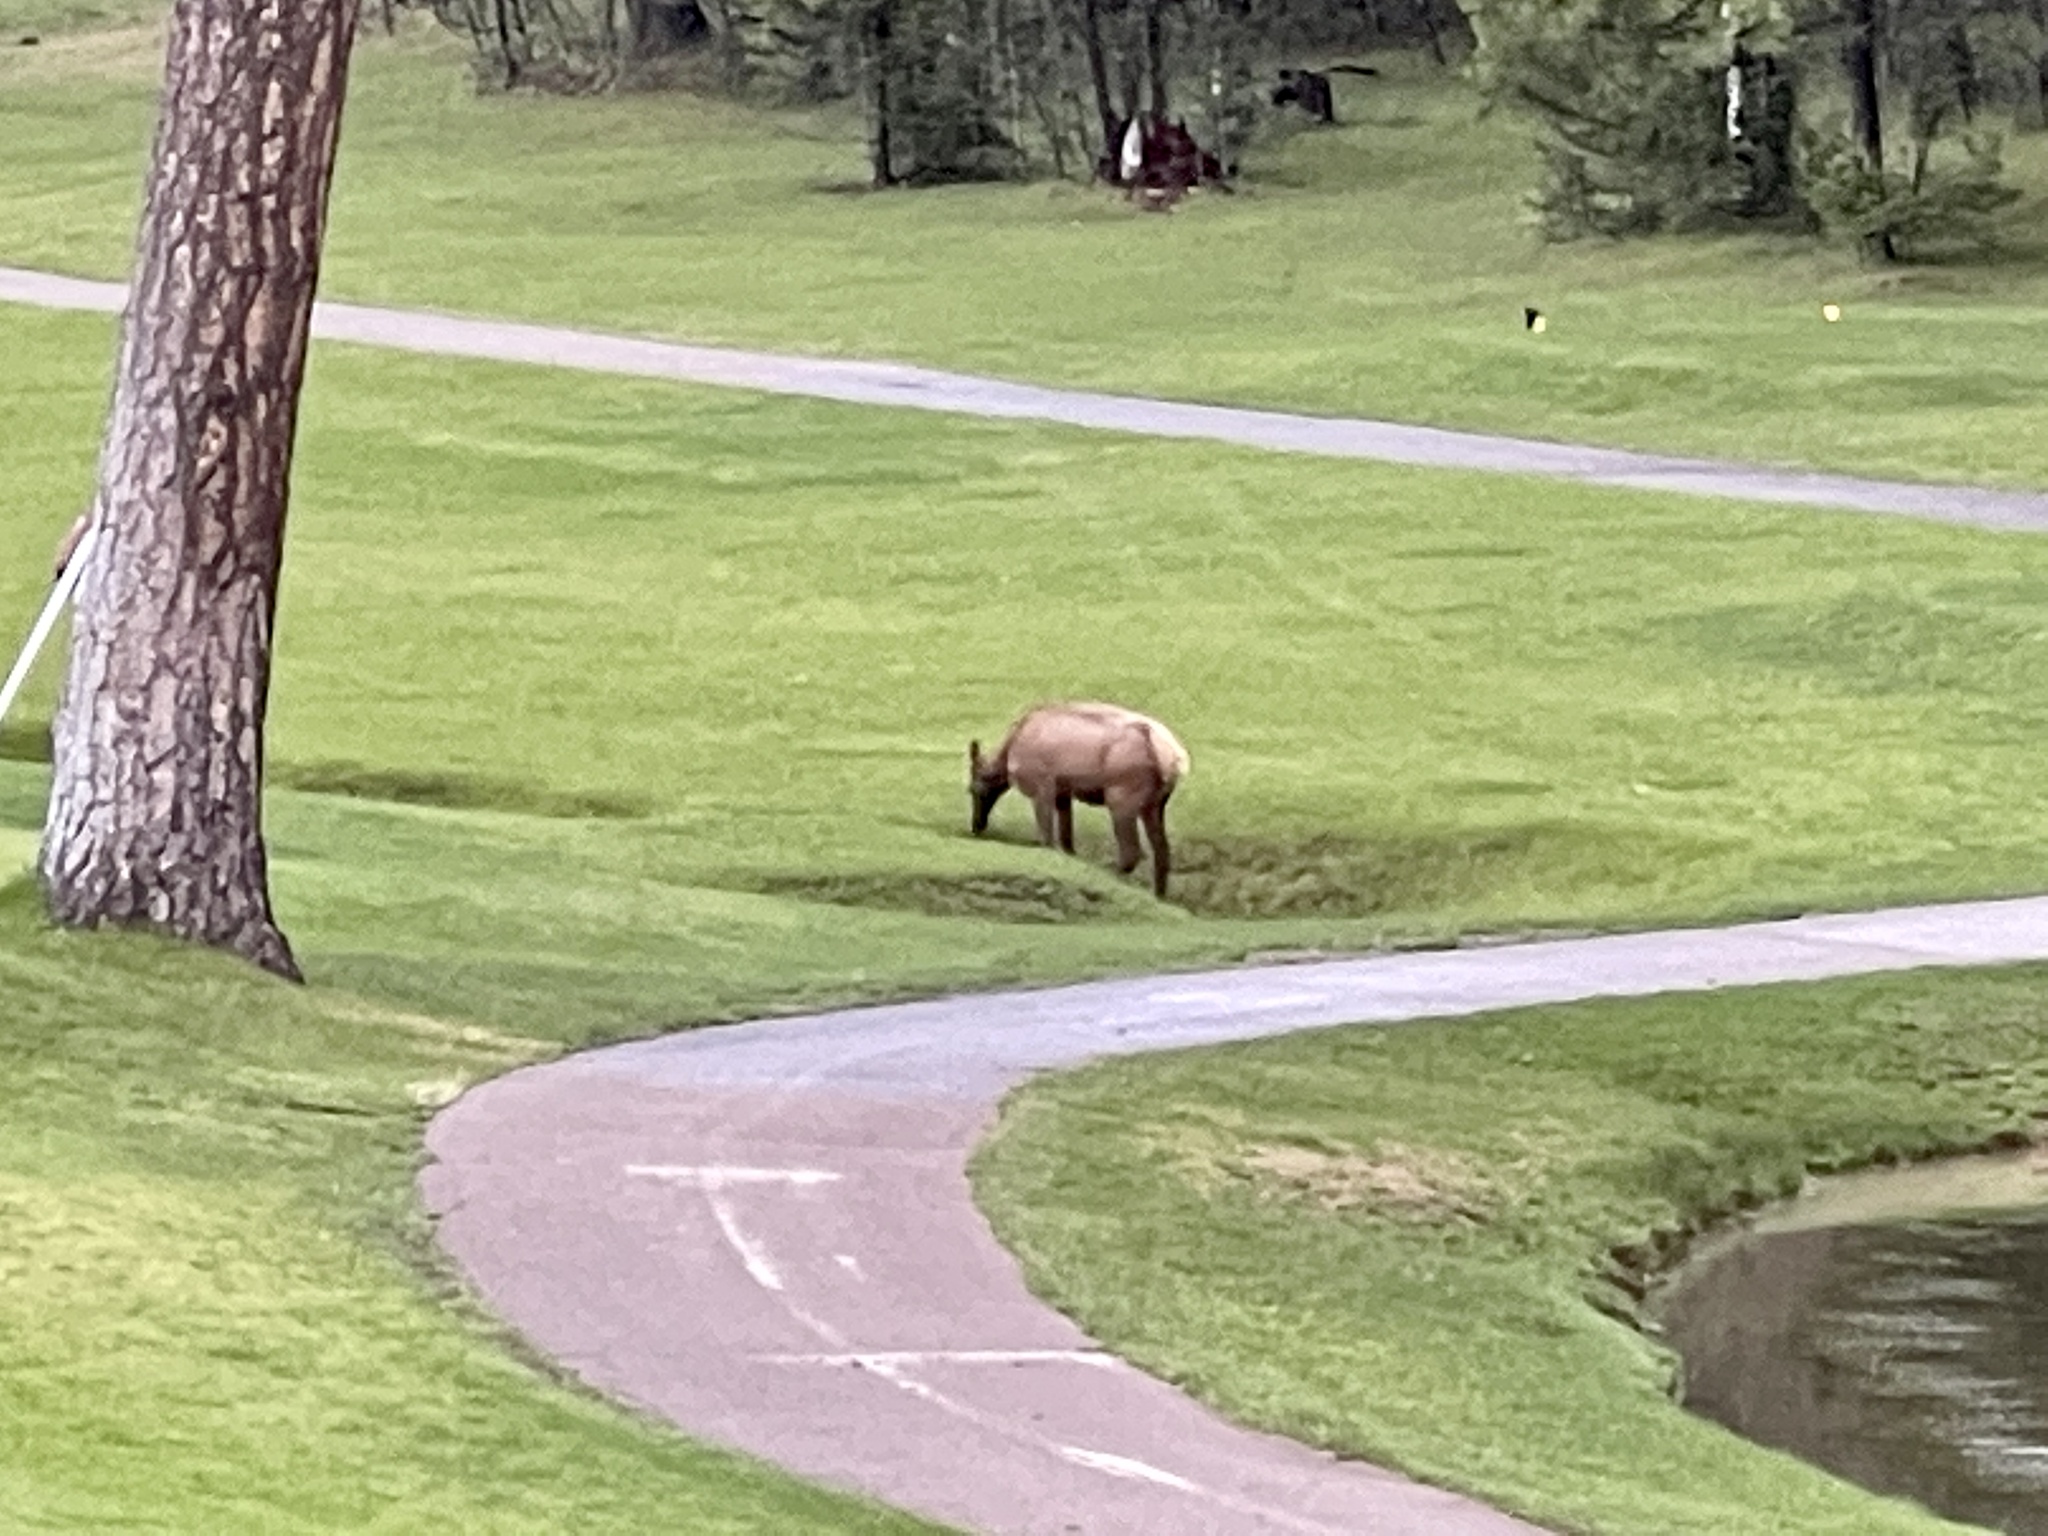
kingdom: Animalia
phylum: Chordata
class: Mammalia
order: Artiodactyla
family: Cervidae
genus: Cervus
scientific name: Cervus elaphus
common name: Red deer
